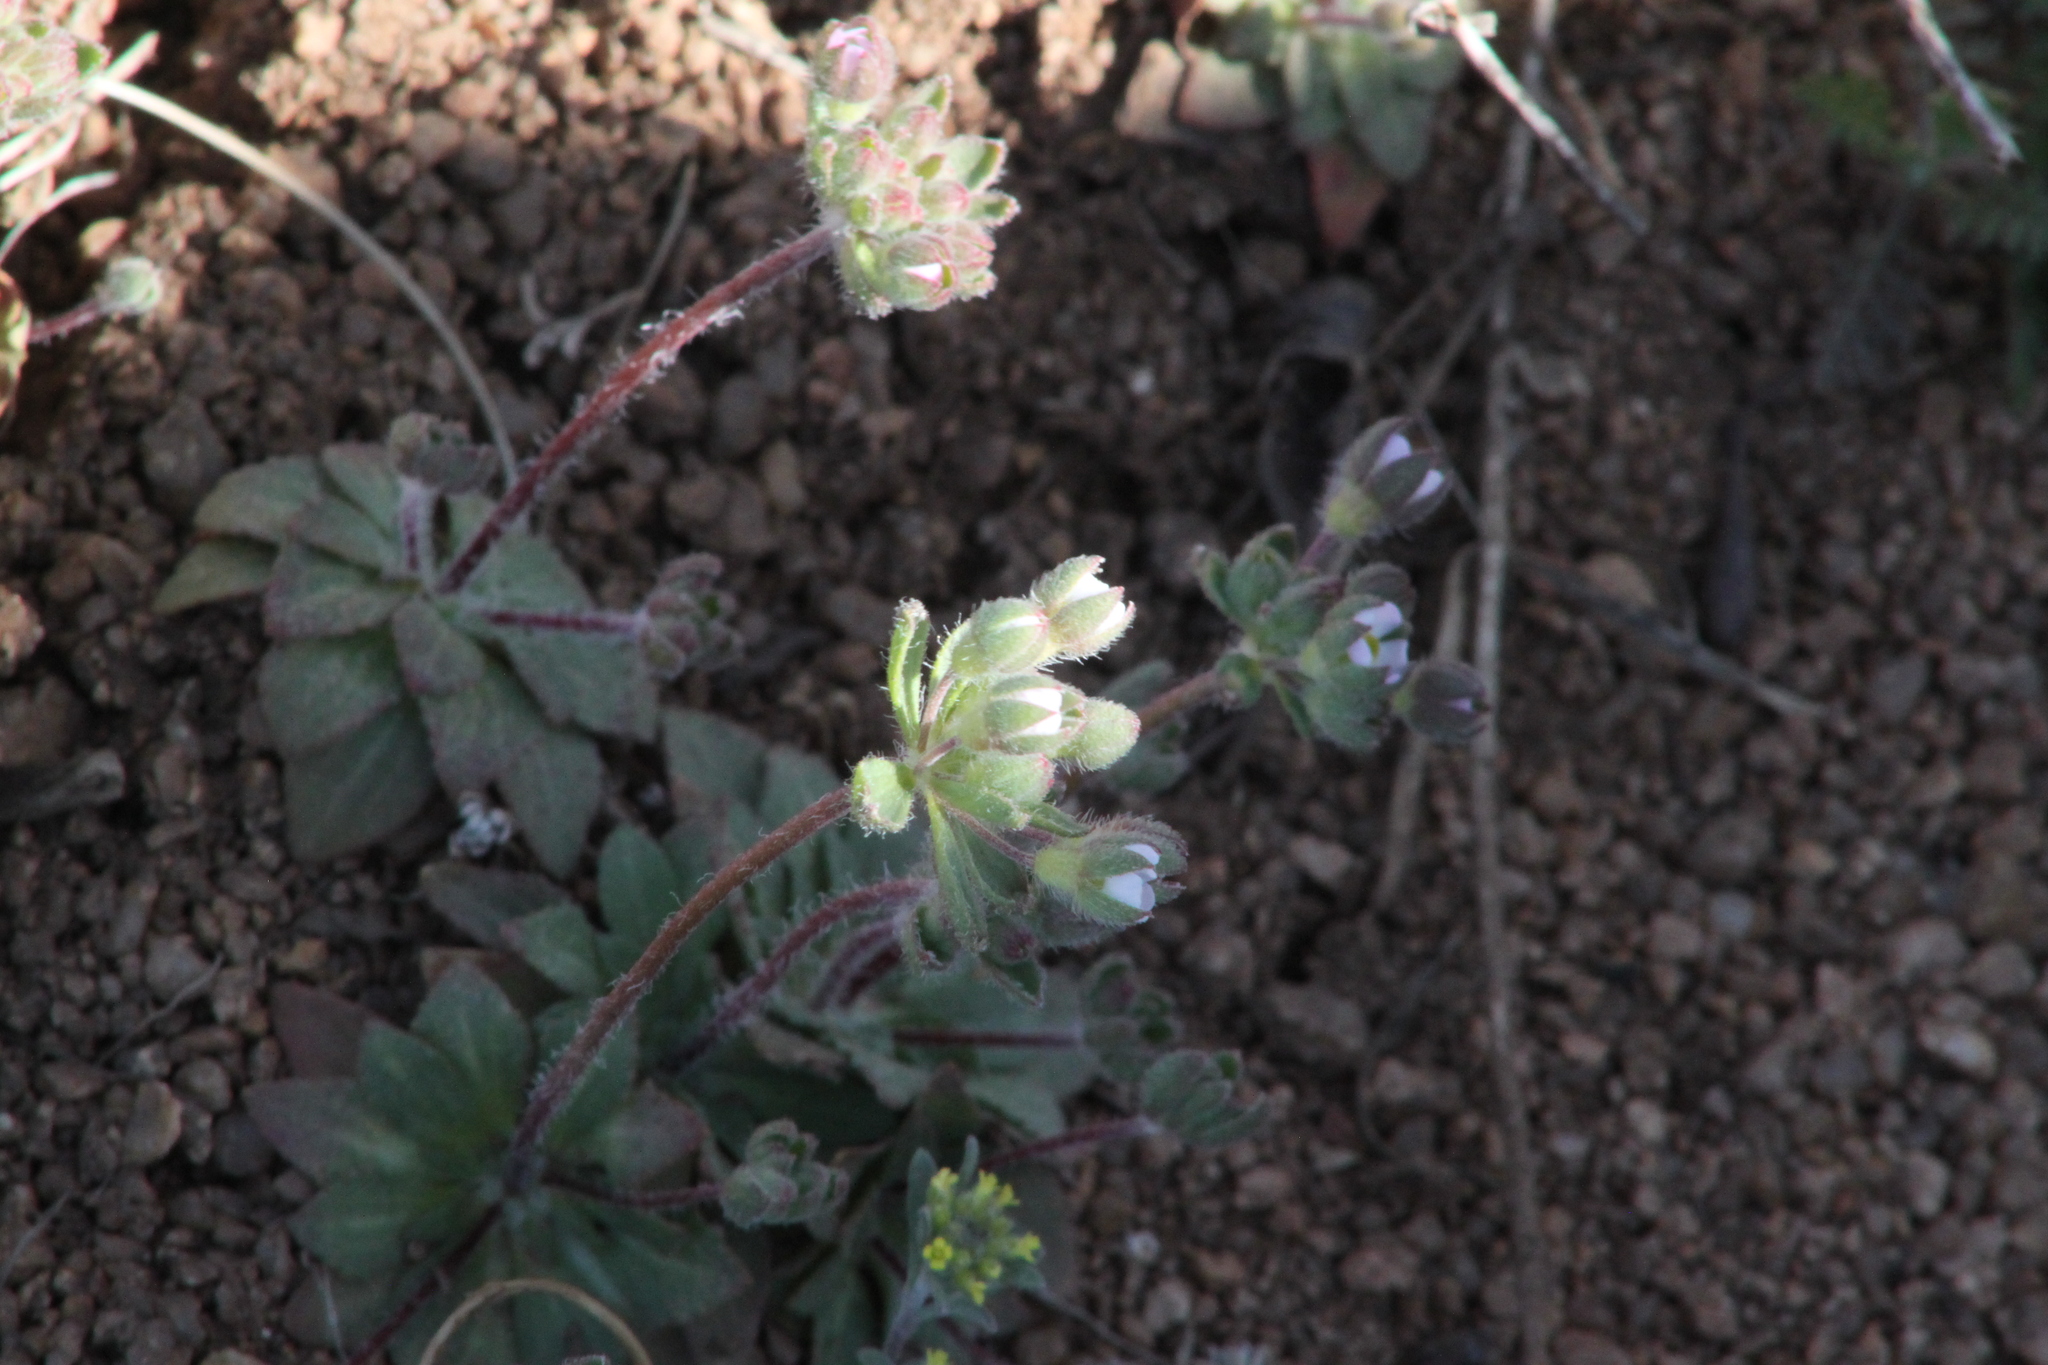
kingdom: Plantae
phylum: Tracheophyta
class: Magnoliopsida
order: Ericales
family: Primulaceae
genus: Androsace
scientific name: Androsace maxima
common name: Annual androsace
